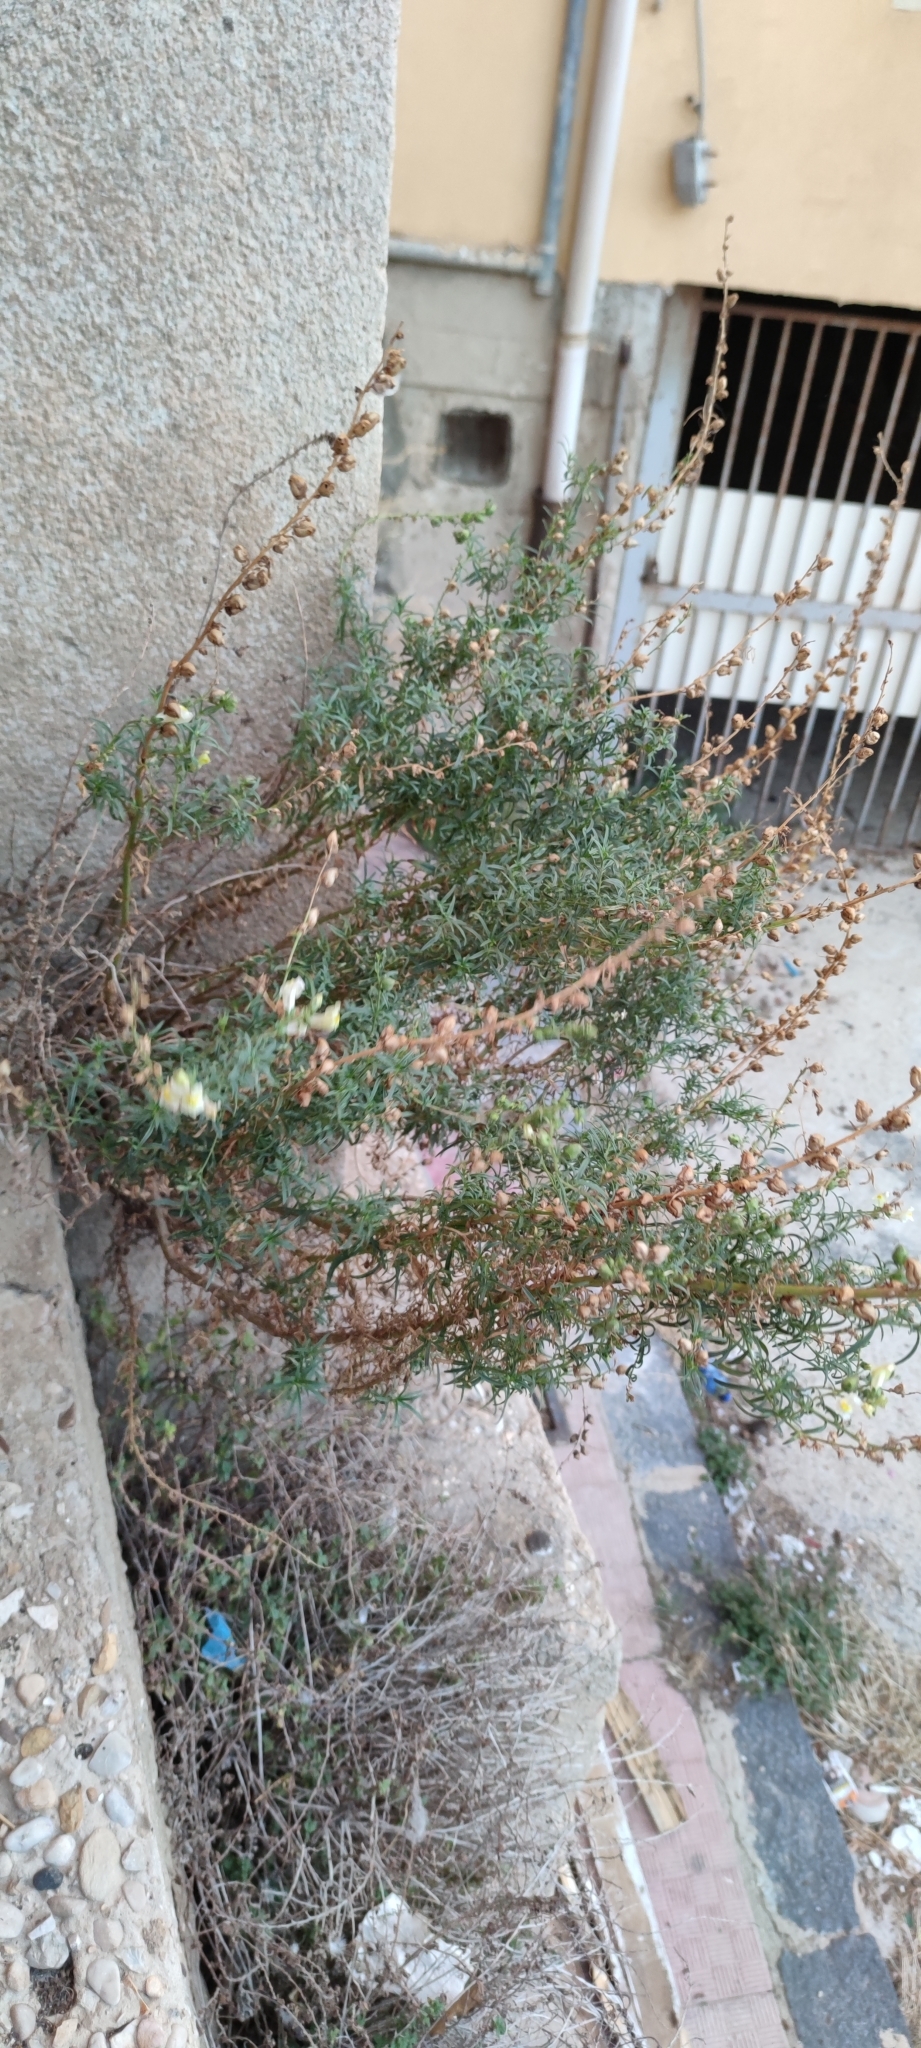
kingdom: Plantae
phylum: Tracheophyta
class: Magnoliopsida
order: Lamiales
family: Plantaginaceae
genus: Antirrhinum
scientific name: Antirrhinum siculum
